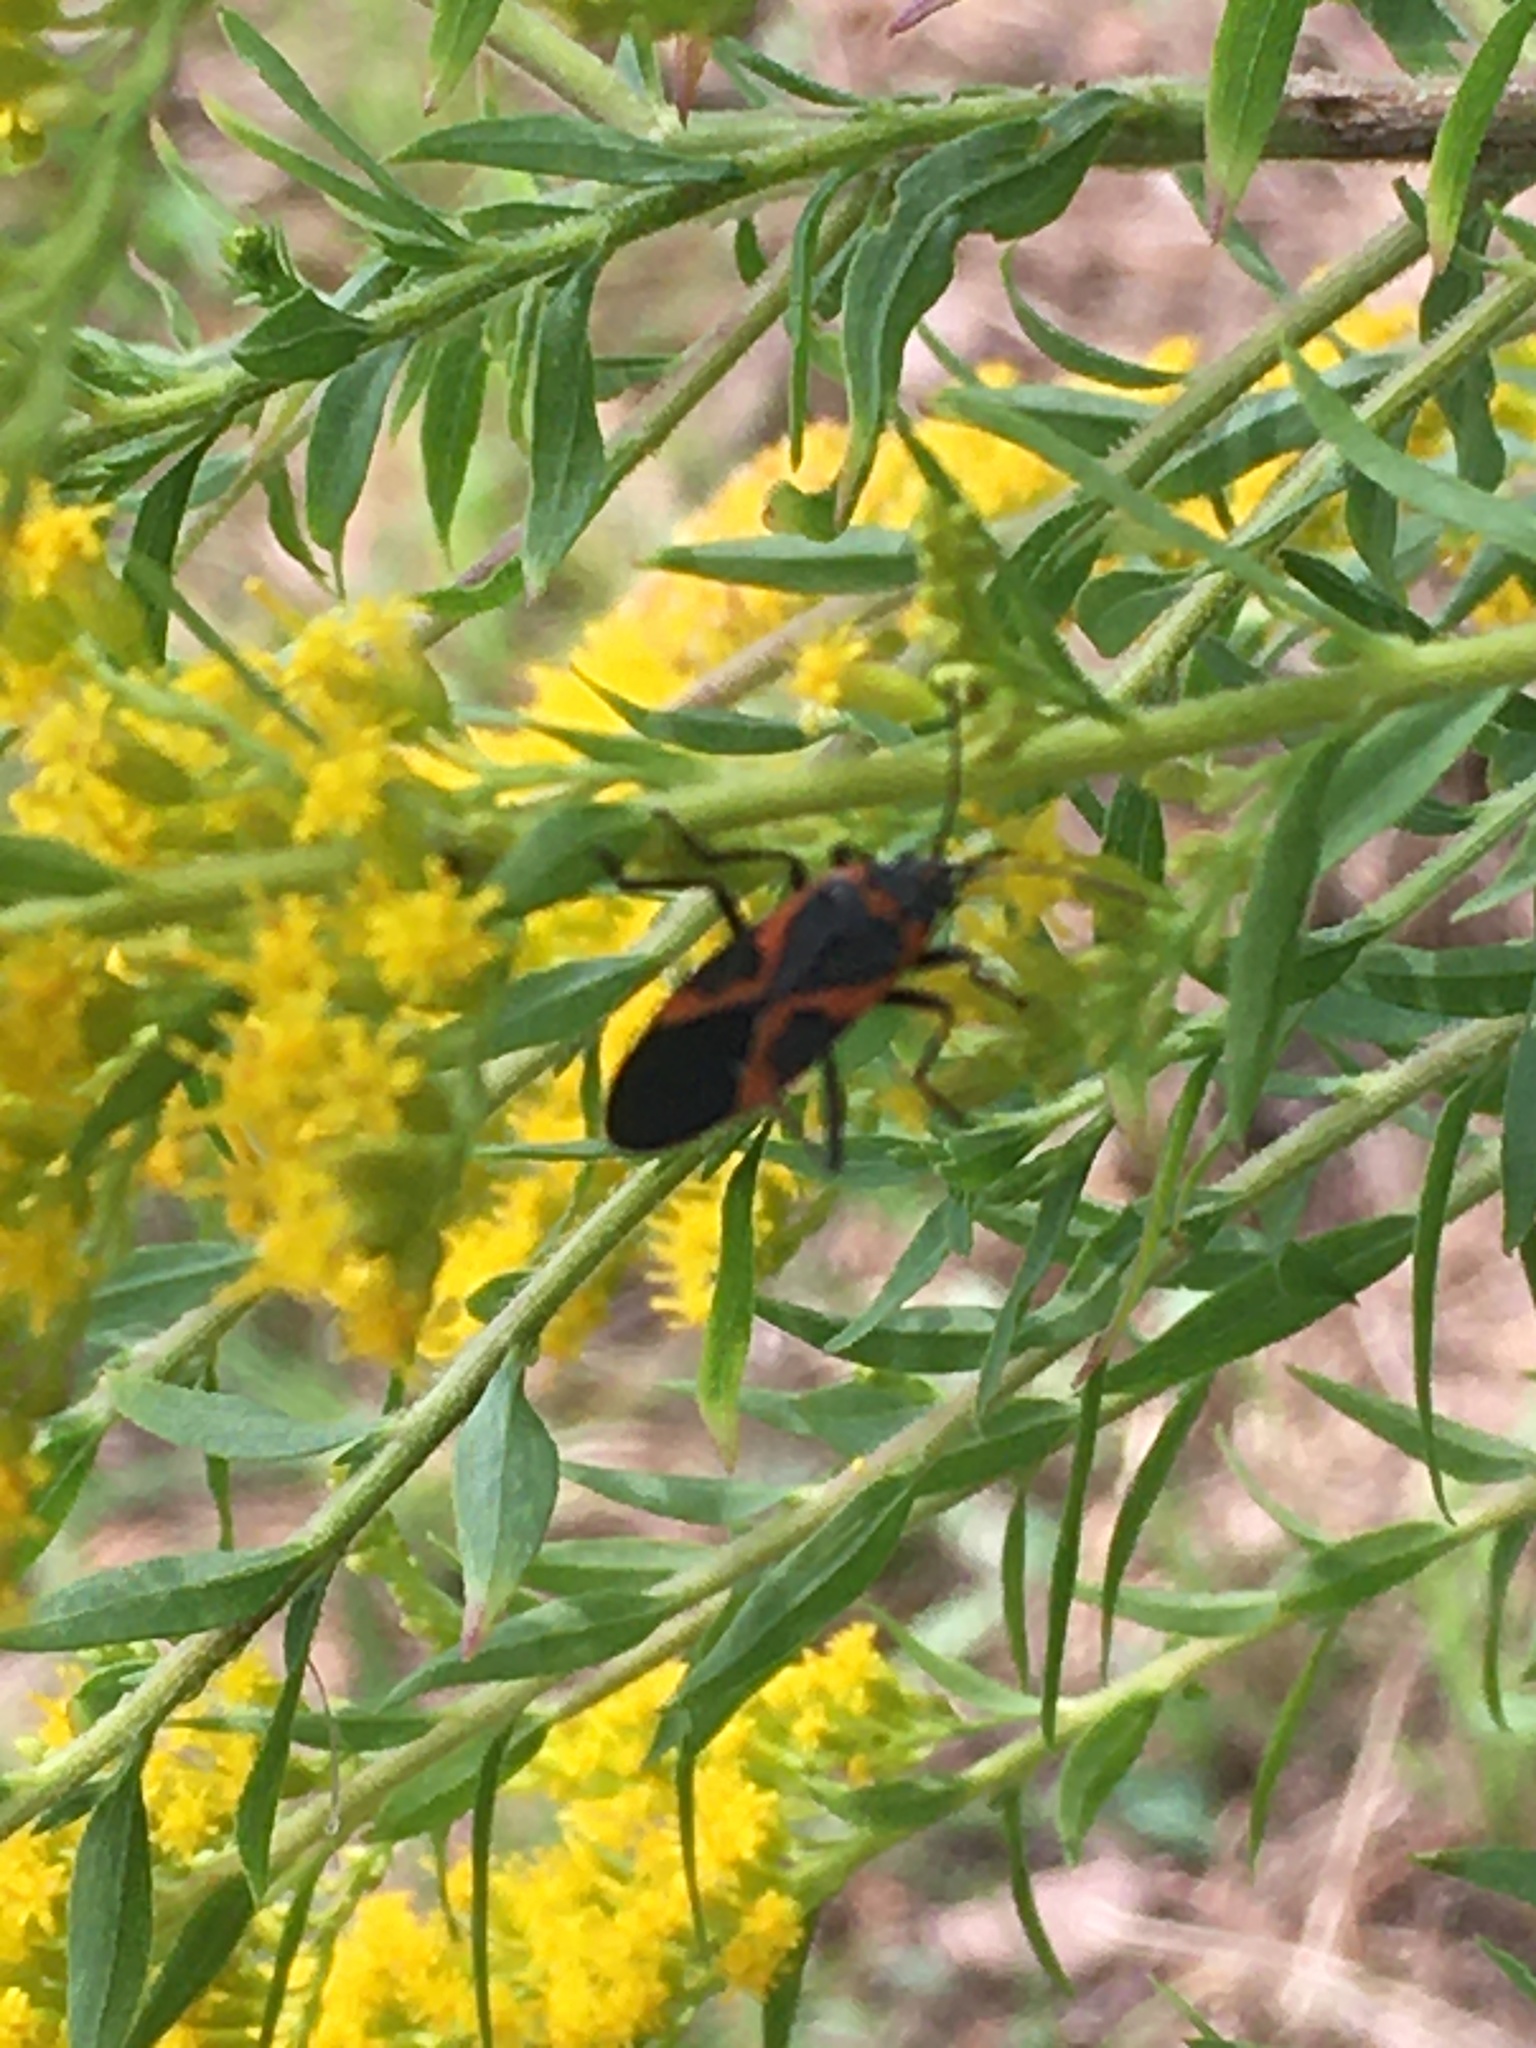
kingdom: Animalia
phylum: Arthropoda
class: Insecta
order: Hemiptera
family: Lygaeidae
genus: Lygaeus
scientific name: Lygaeus kalmii
